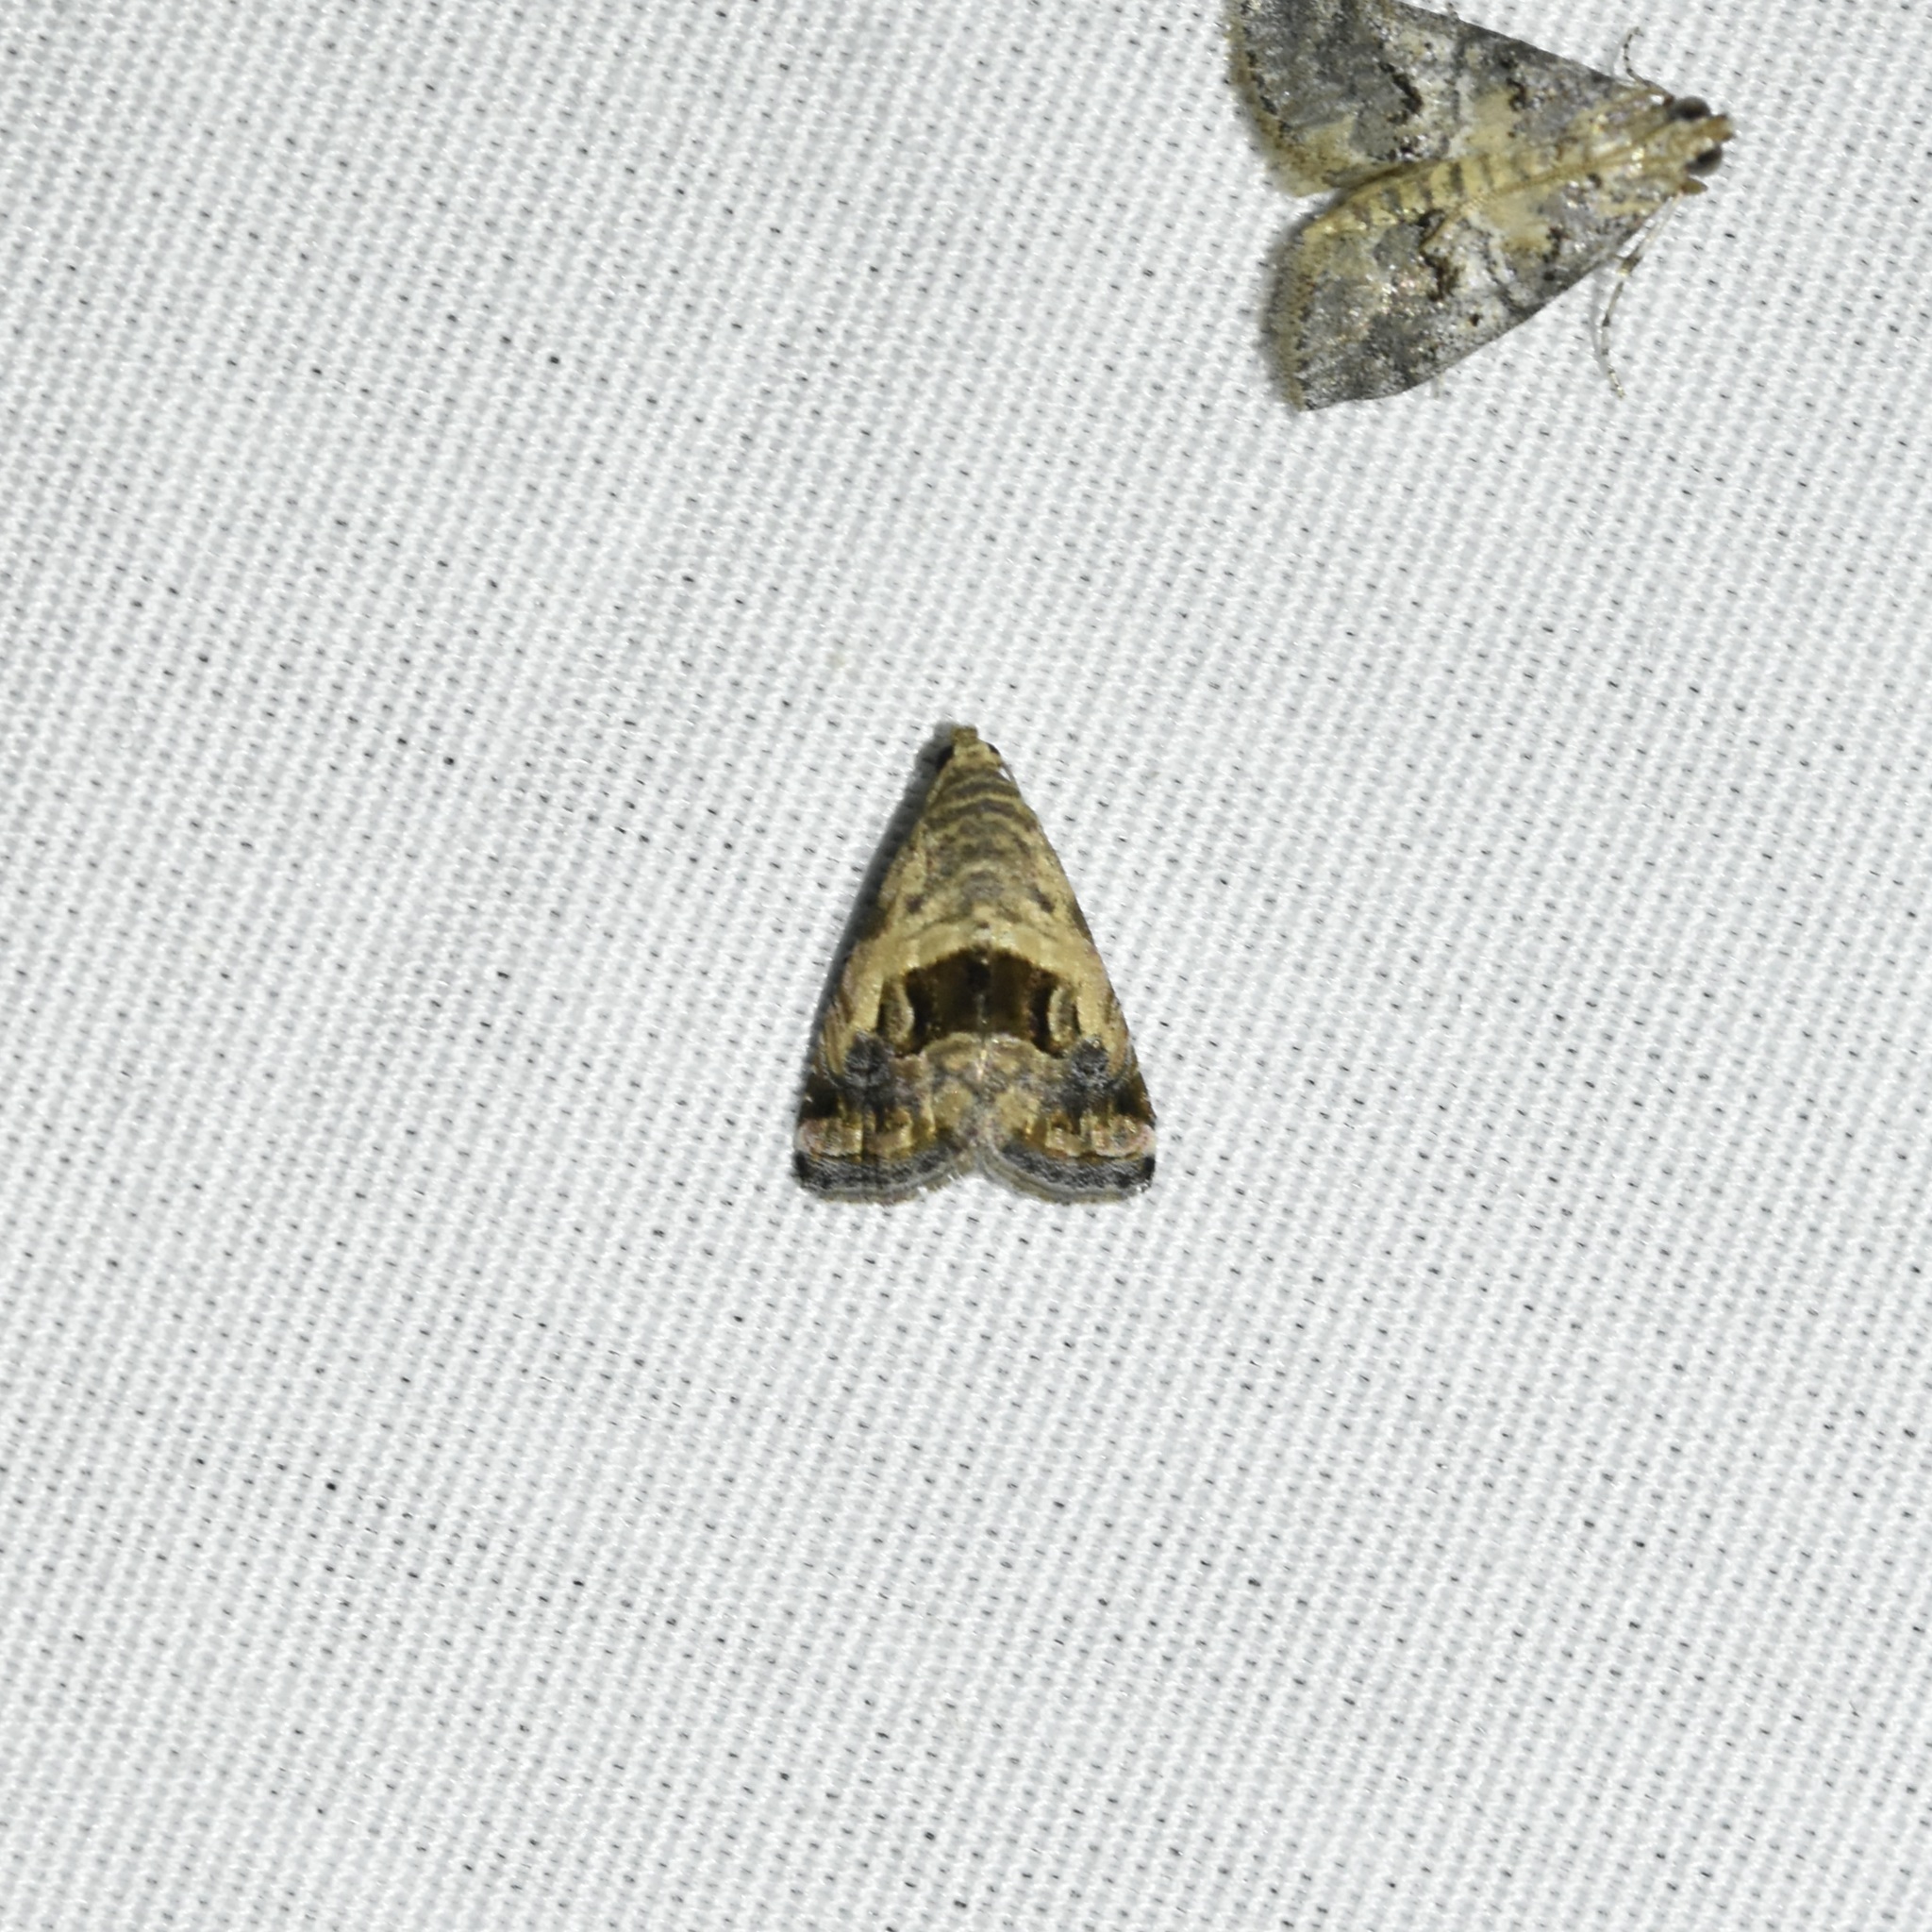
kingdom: Animalia
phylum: Arthropoda
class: Insecta
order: Lepidoptera
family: Noctuidae
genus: Tripudia
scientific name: Tripudia quadrifera
